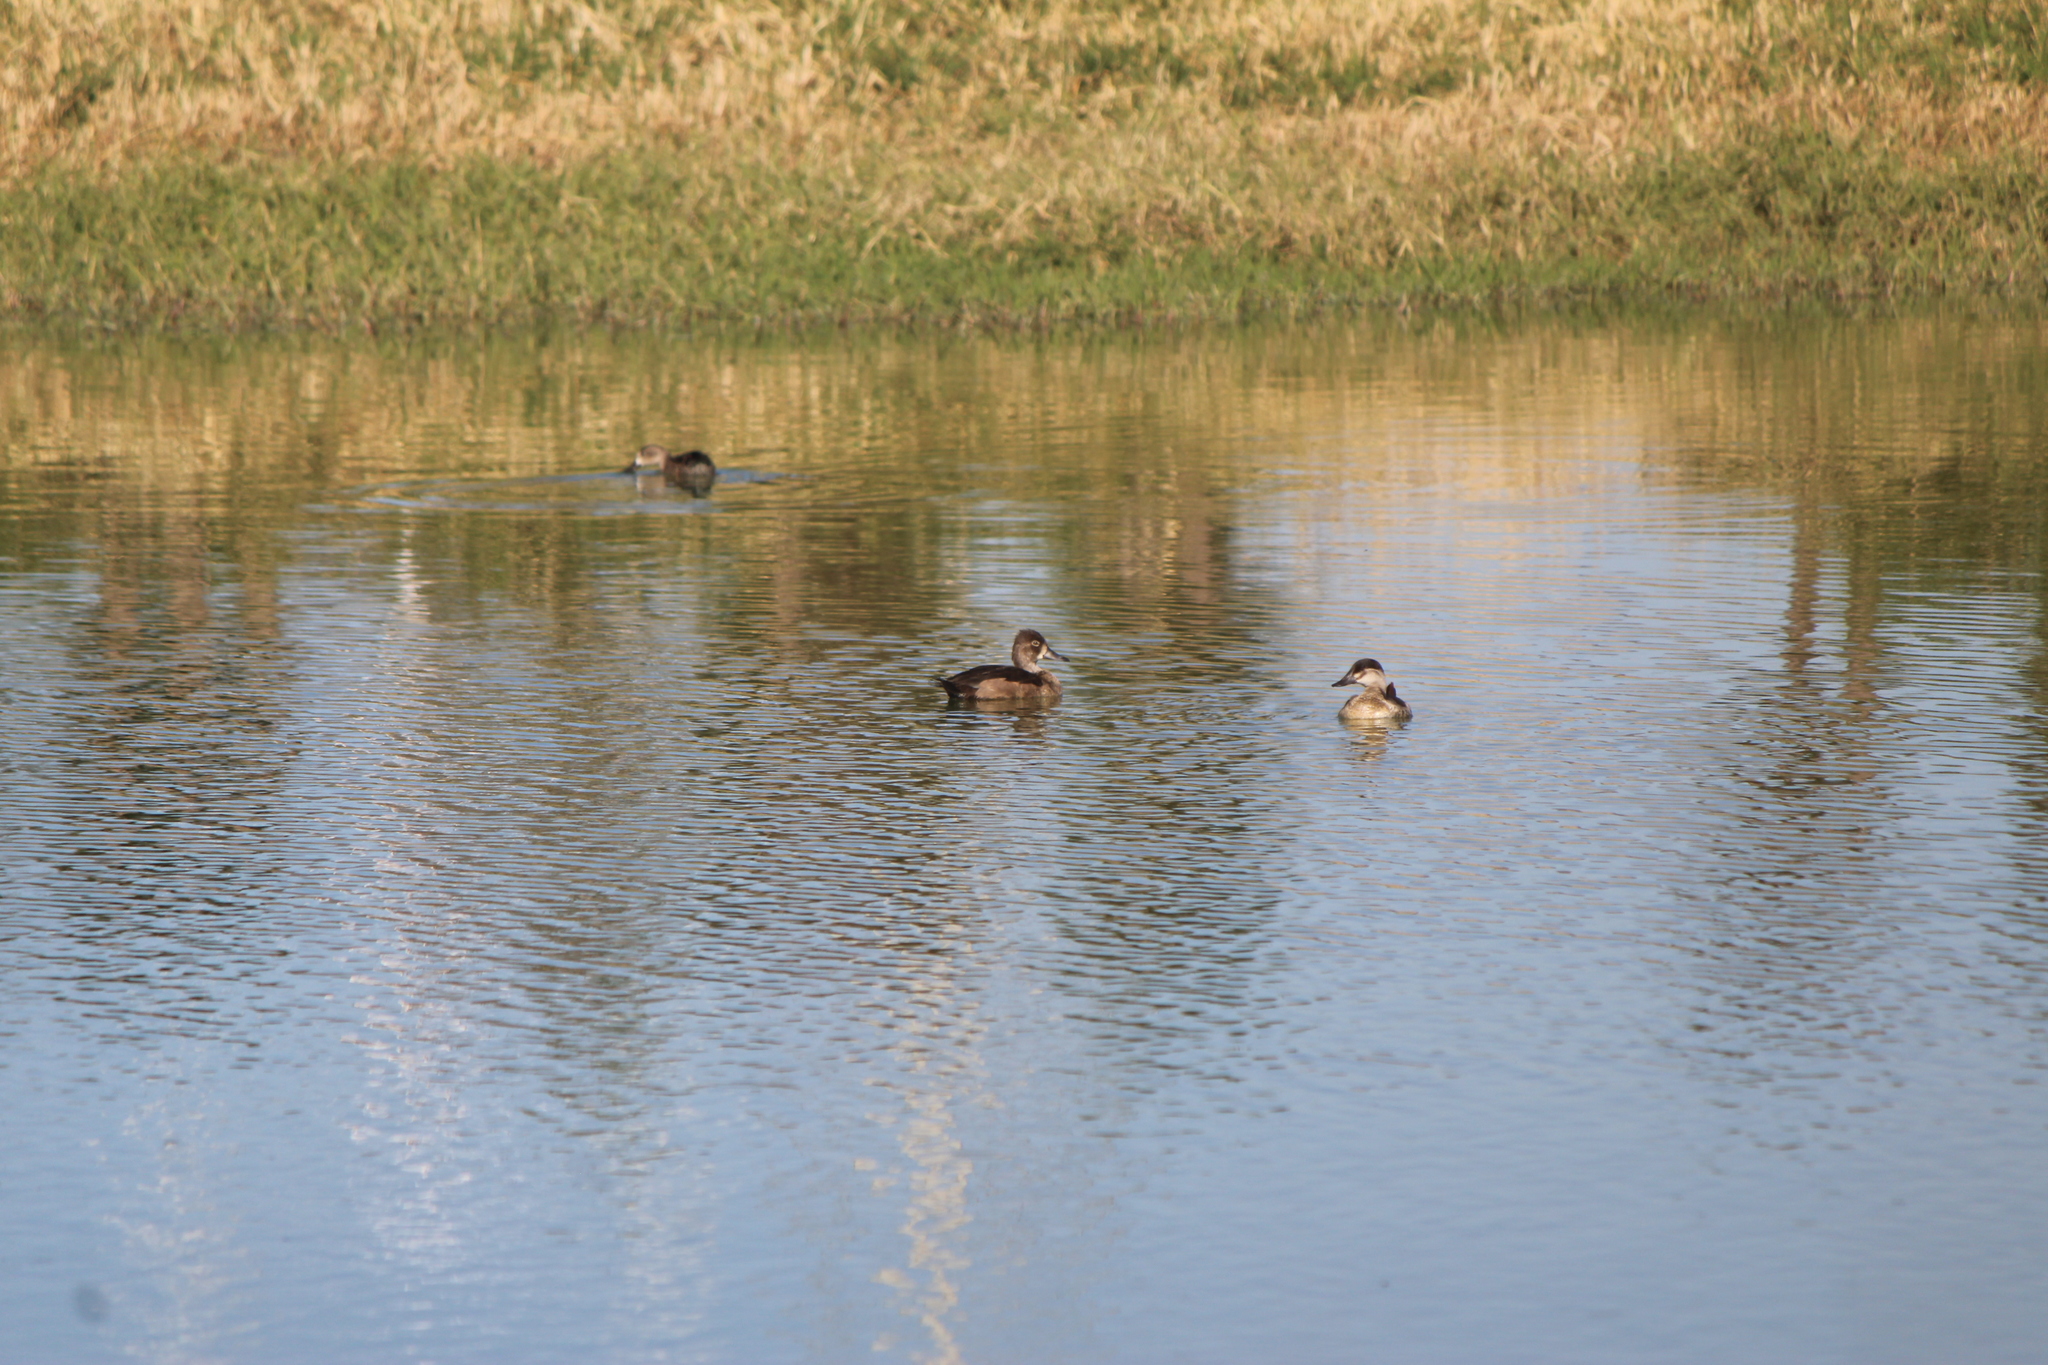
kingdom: Animalia
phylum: Chordata
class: Aves
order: Anseriformes
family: Anatidae
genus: Aythya
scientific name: Aythya collaris
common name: Ring-necked duck
